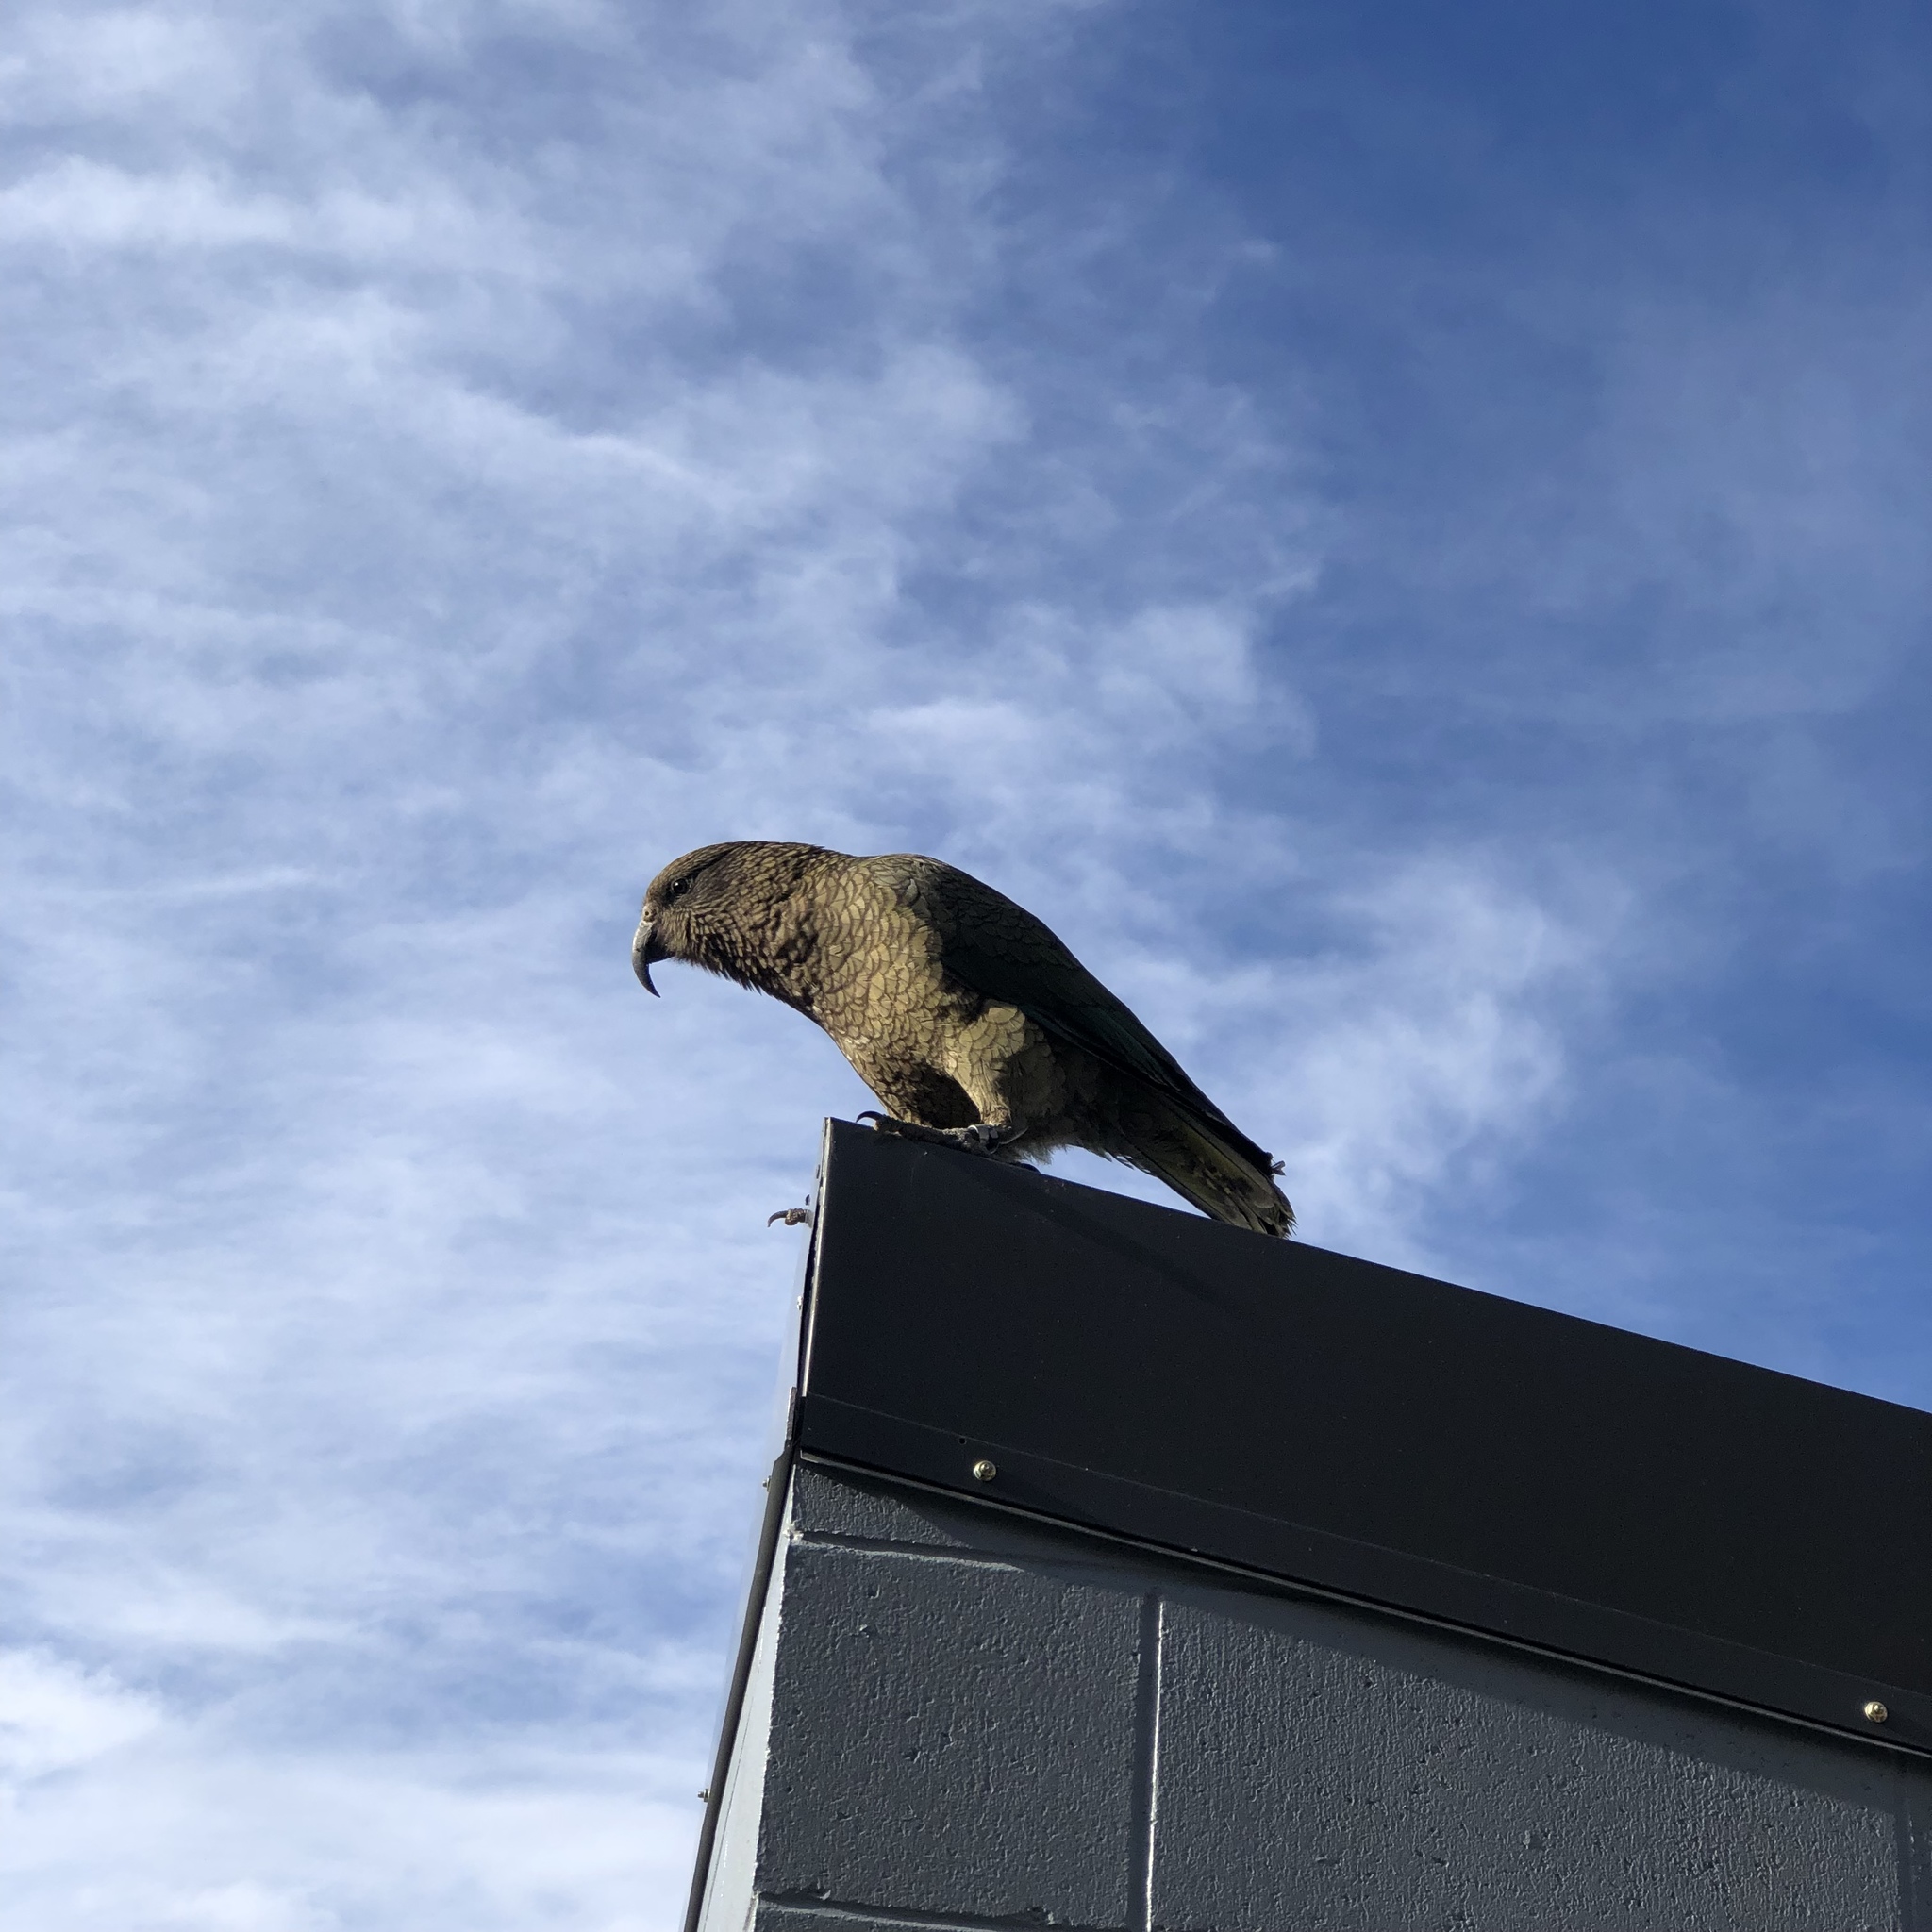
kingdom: Animalia
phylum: Chordata
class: Aves
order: Psittaciformes
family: Psittacidae
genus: Nestor
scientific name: Nestor notabilis
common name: Kea
